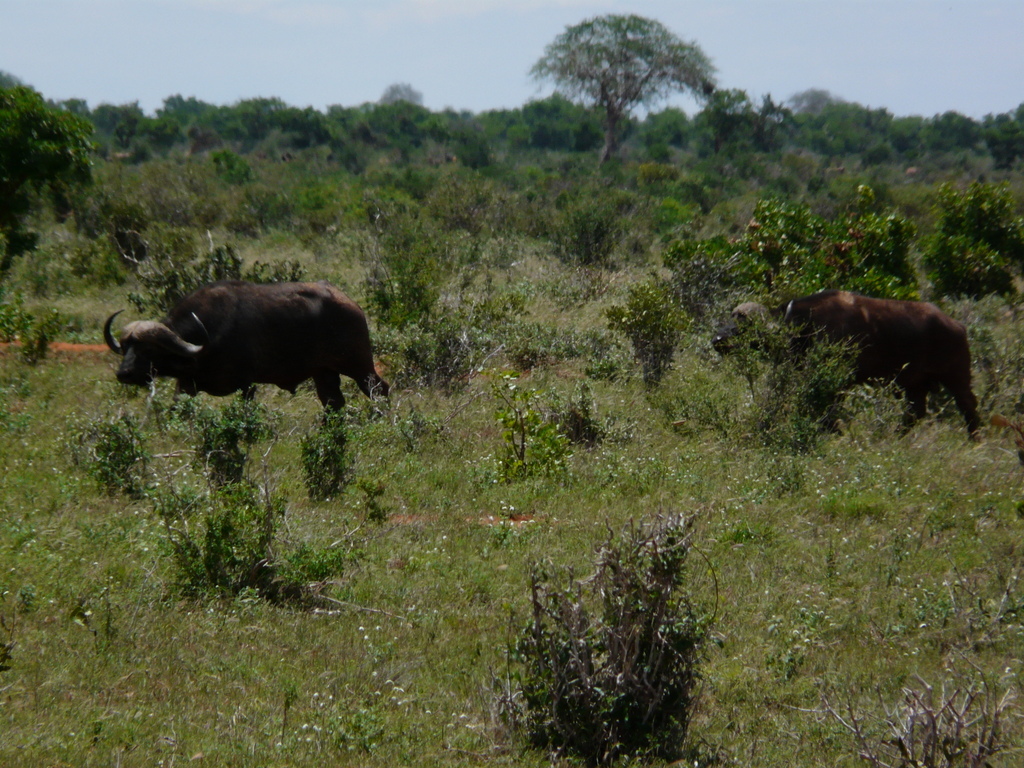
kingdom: Animalia
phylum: Chordata
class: Mammalia
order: Artiodactyla
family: Bovidae
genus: Syncerus
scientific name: Syncerus caffer
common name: African buffalo
